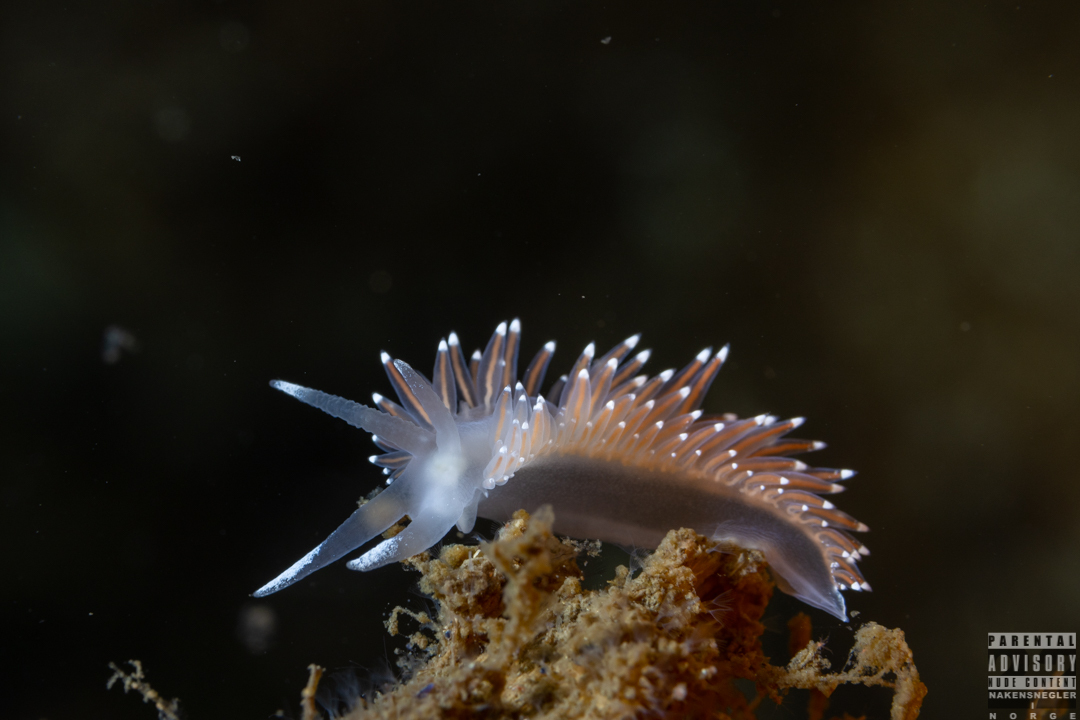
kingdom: Animalia
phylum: Mollusca
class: Gastropoda
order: Nudibranchia
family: Coryphellidae
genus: Coryphella
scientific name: Coryphella nobilis
